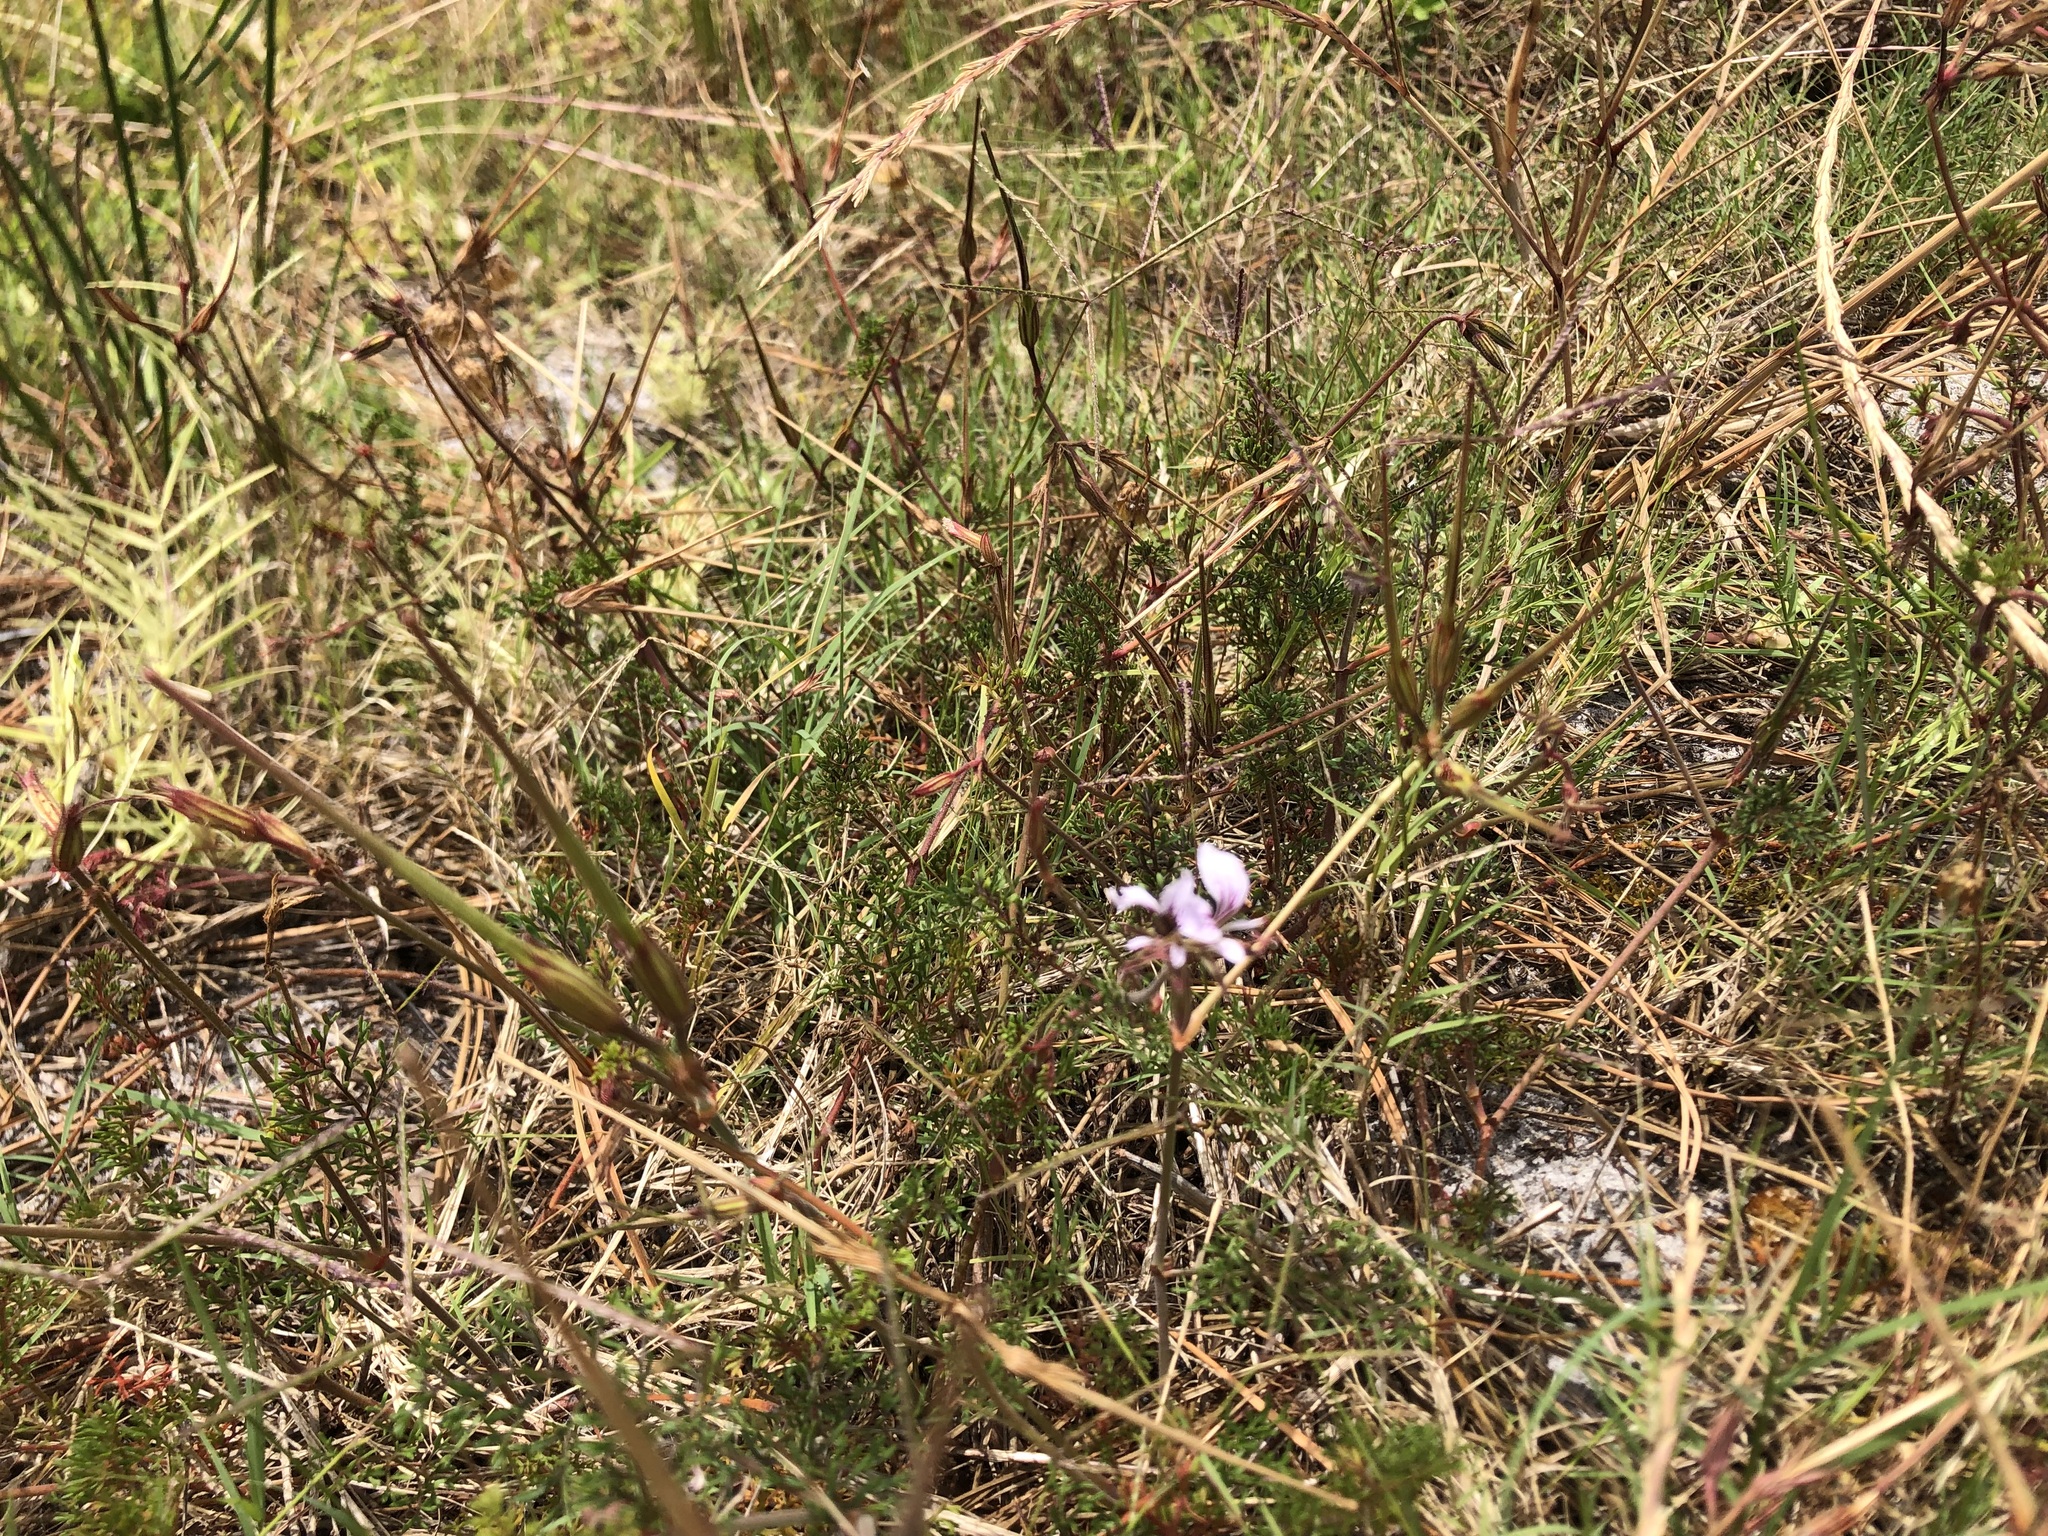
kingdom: Plantae
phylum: Tracheophyta
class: Magnoliopsida
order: Geraniales
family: Geraniaceae
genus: Pelargonium
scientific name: Pelargonium myrrhifolium
